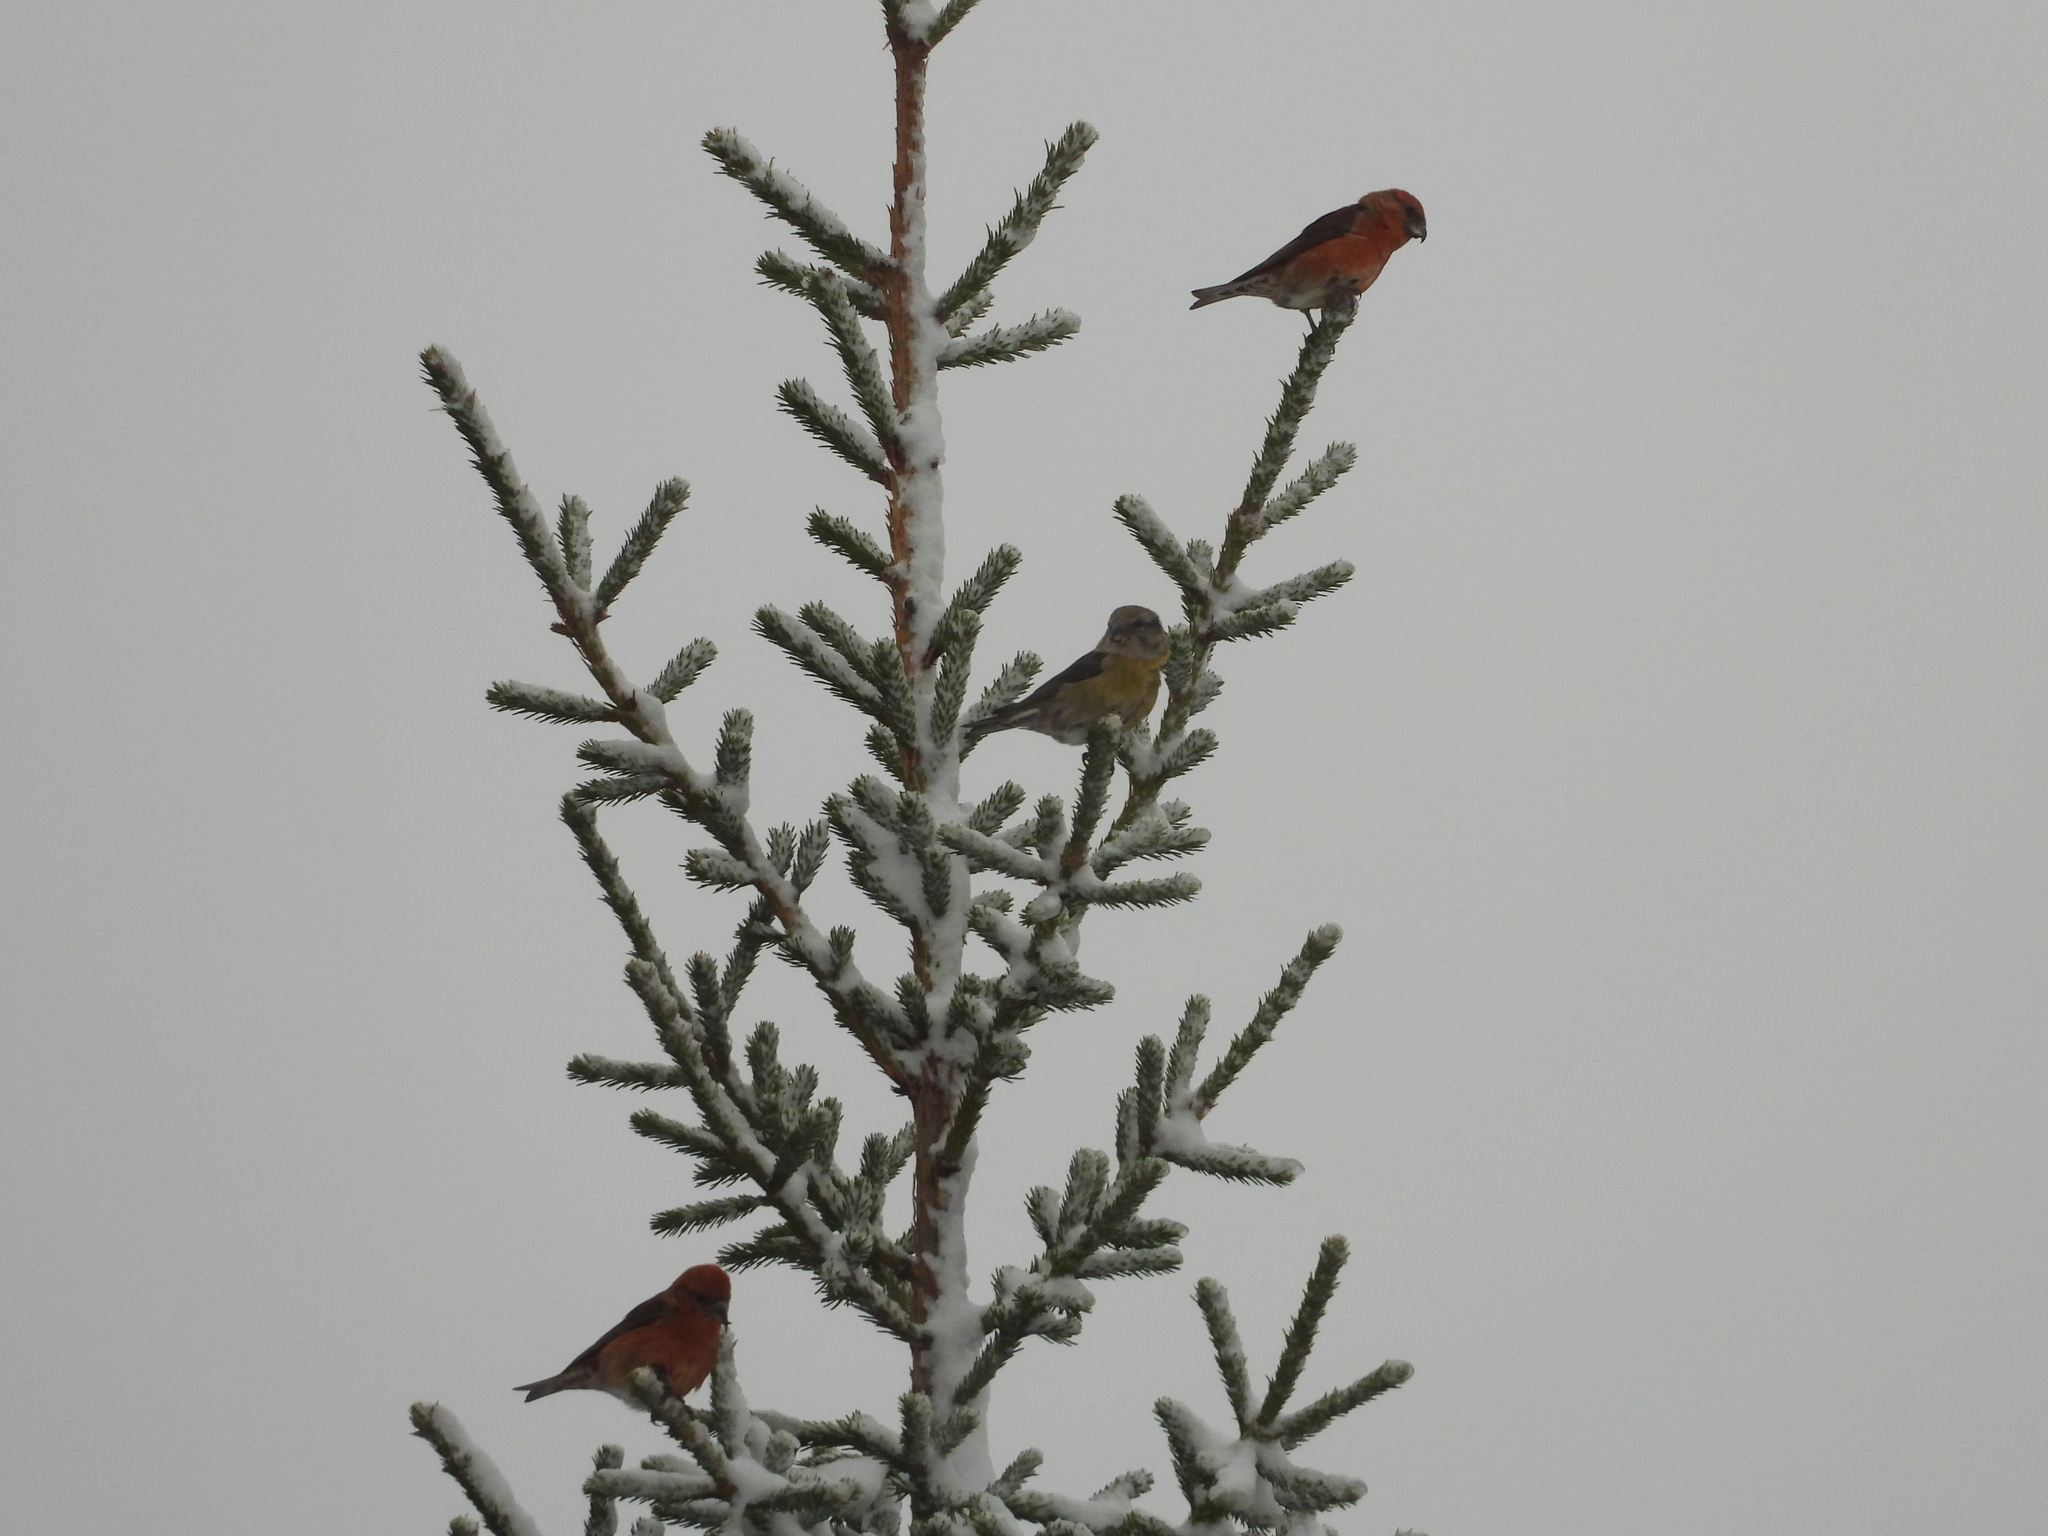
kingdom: Animalia
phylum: Chordata
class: Aves
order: Passeriformes
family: Fringillidae
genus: Loxia
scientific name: Loxia curvirostra
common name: Red crossbill
